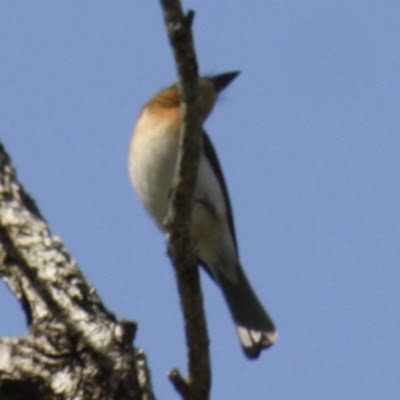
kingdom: Animalia
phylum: Chordata
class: Aves
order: Passeriformes
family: Monarchidae
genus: Myiagra
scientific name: Myiagra rubecula
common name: Leaden flycatcher
